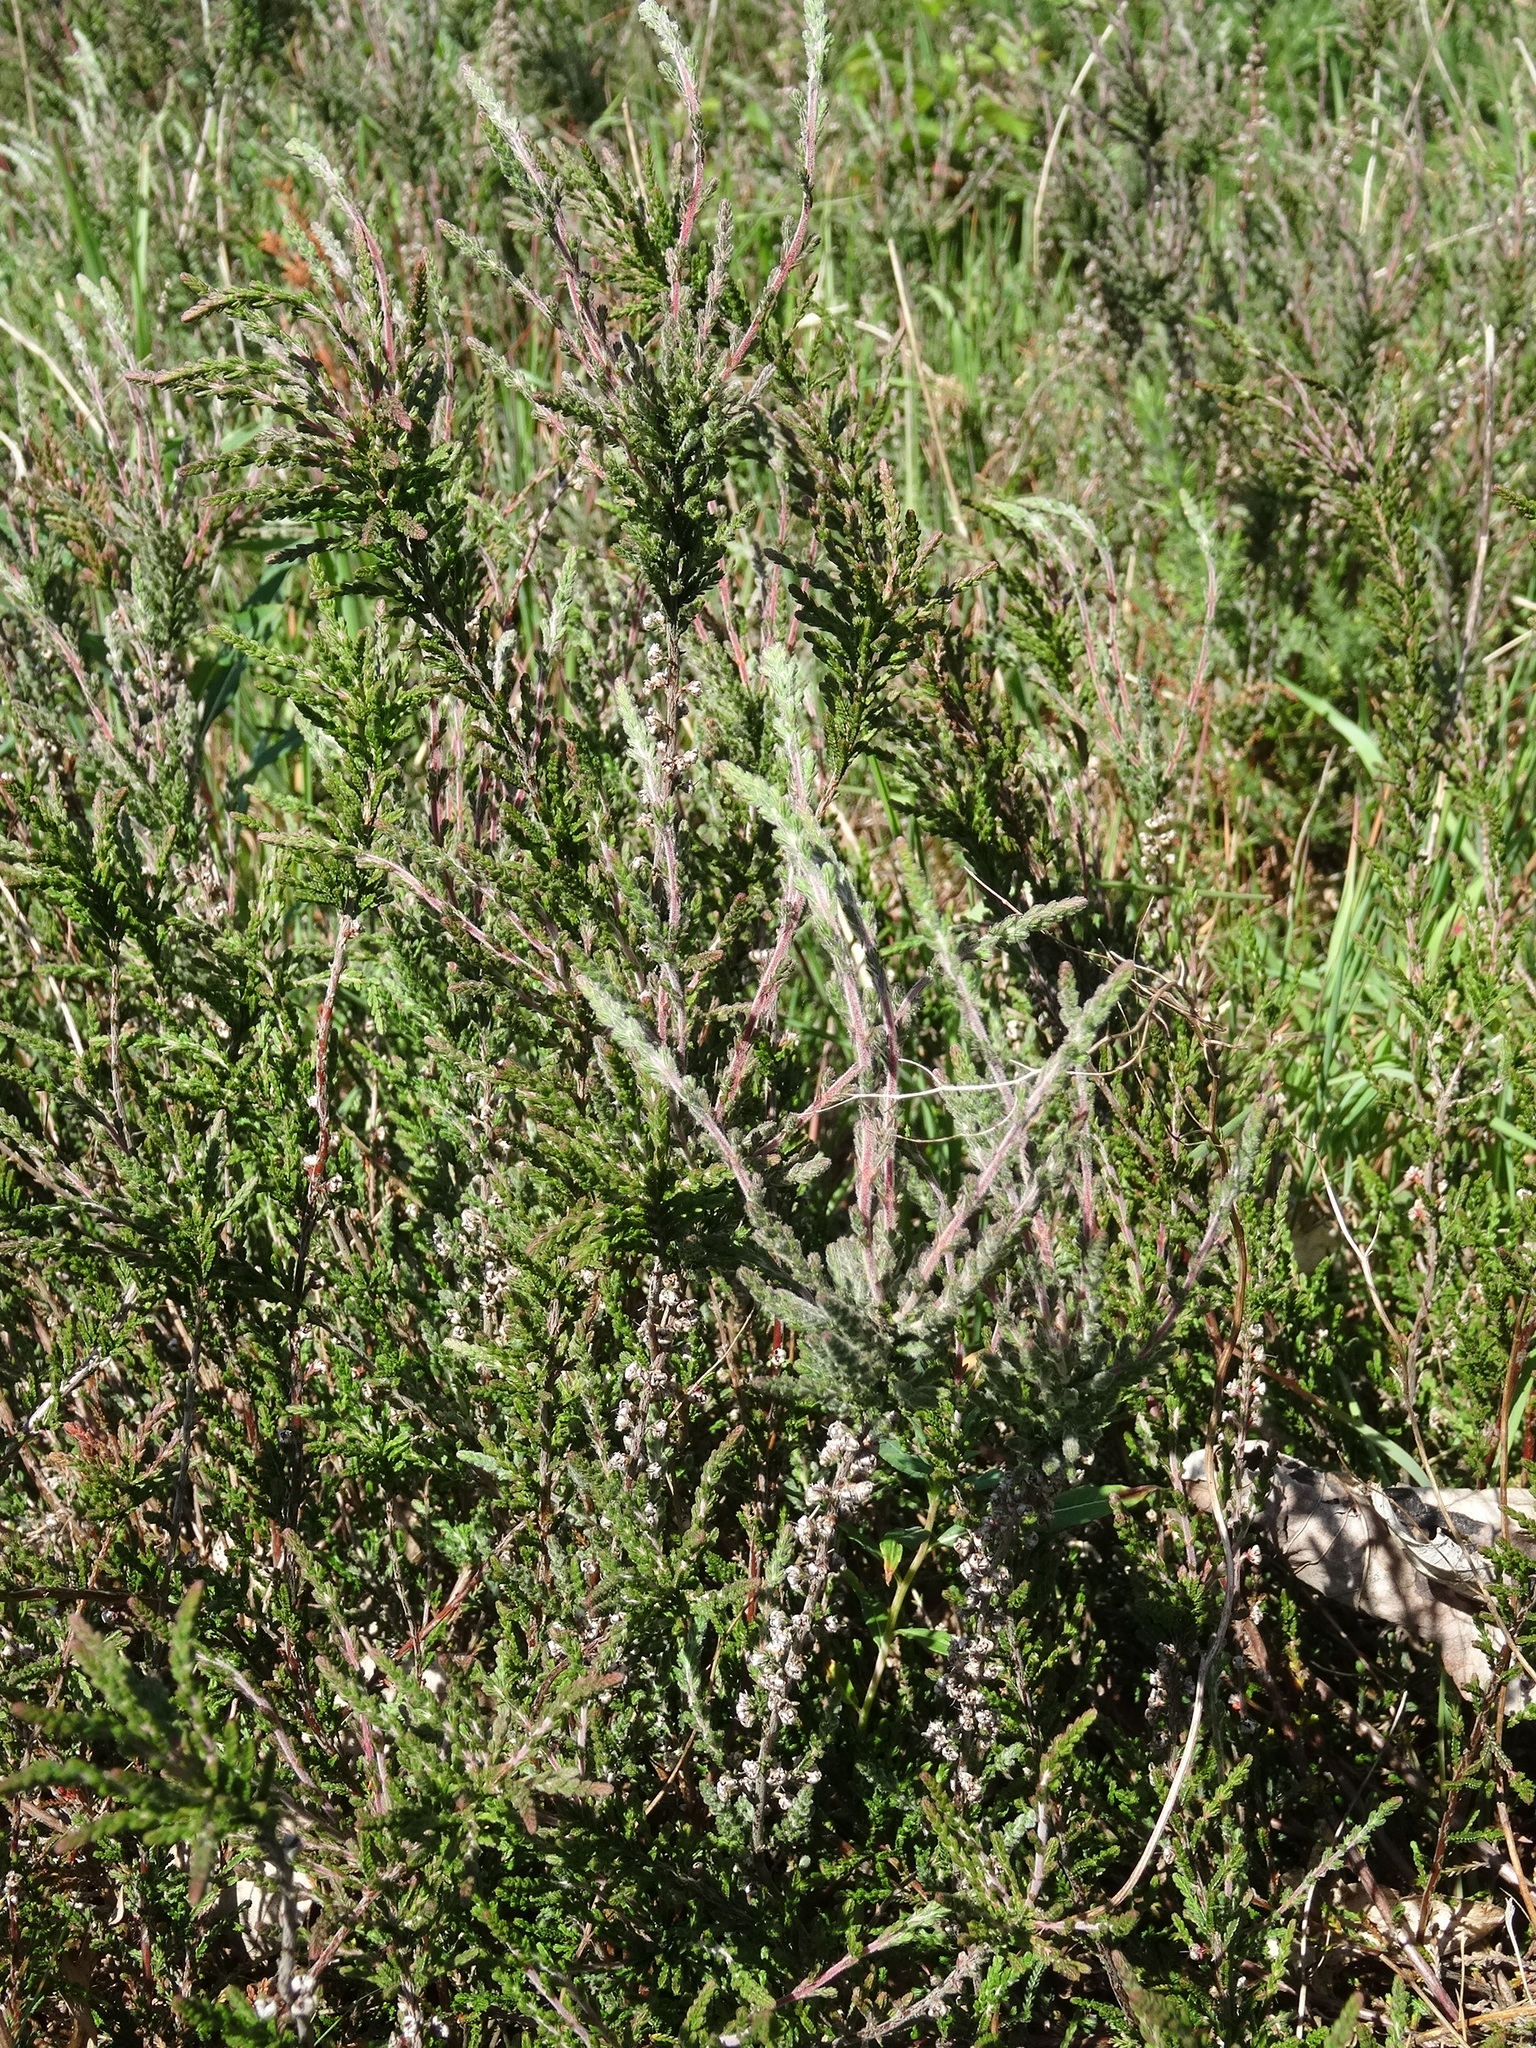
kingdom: Plantae
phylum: Tracheophyta
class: Magnoliopsida
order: Ericales
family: Ericaceae
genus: Calluna
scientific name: Calluna vulgaris
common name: Heather
